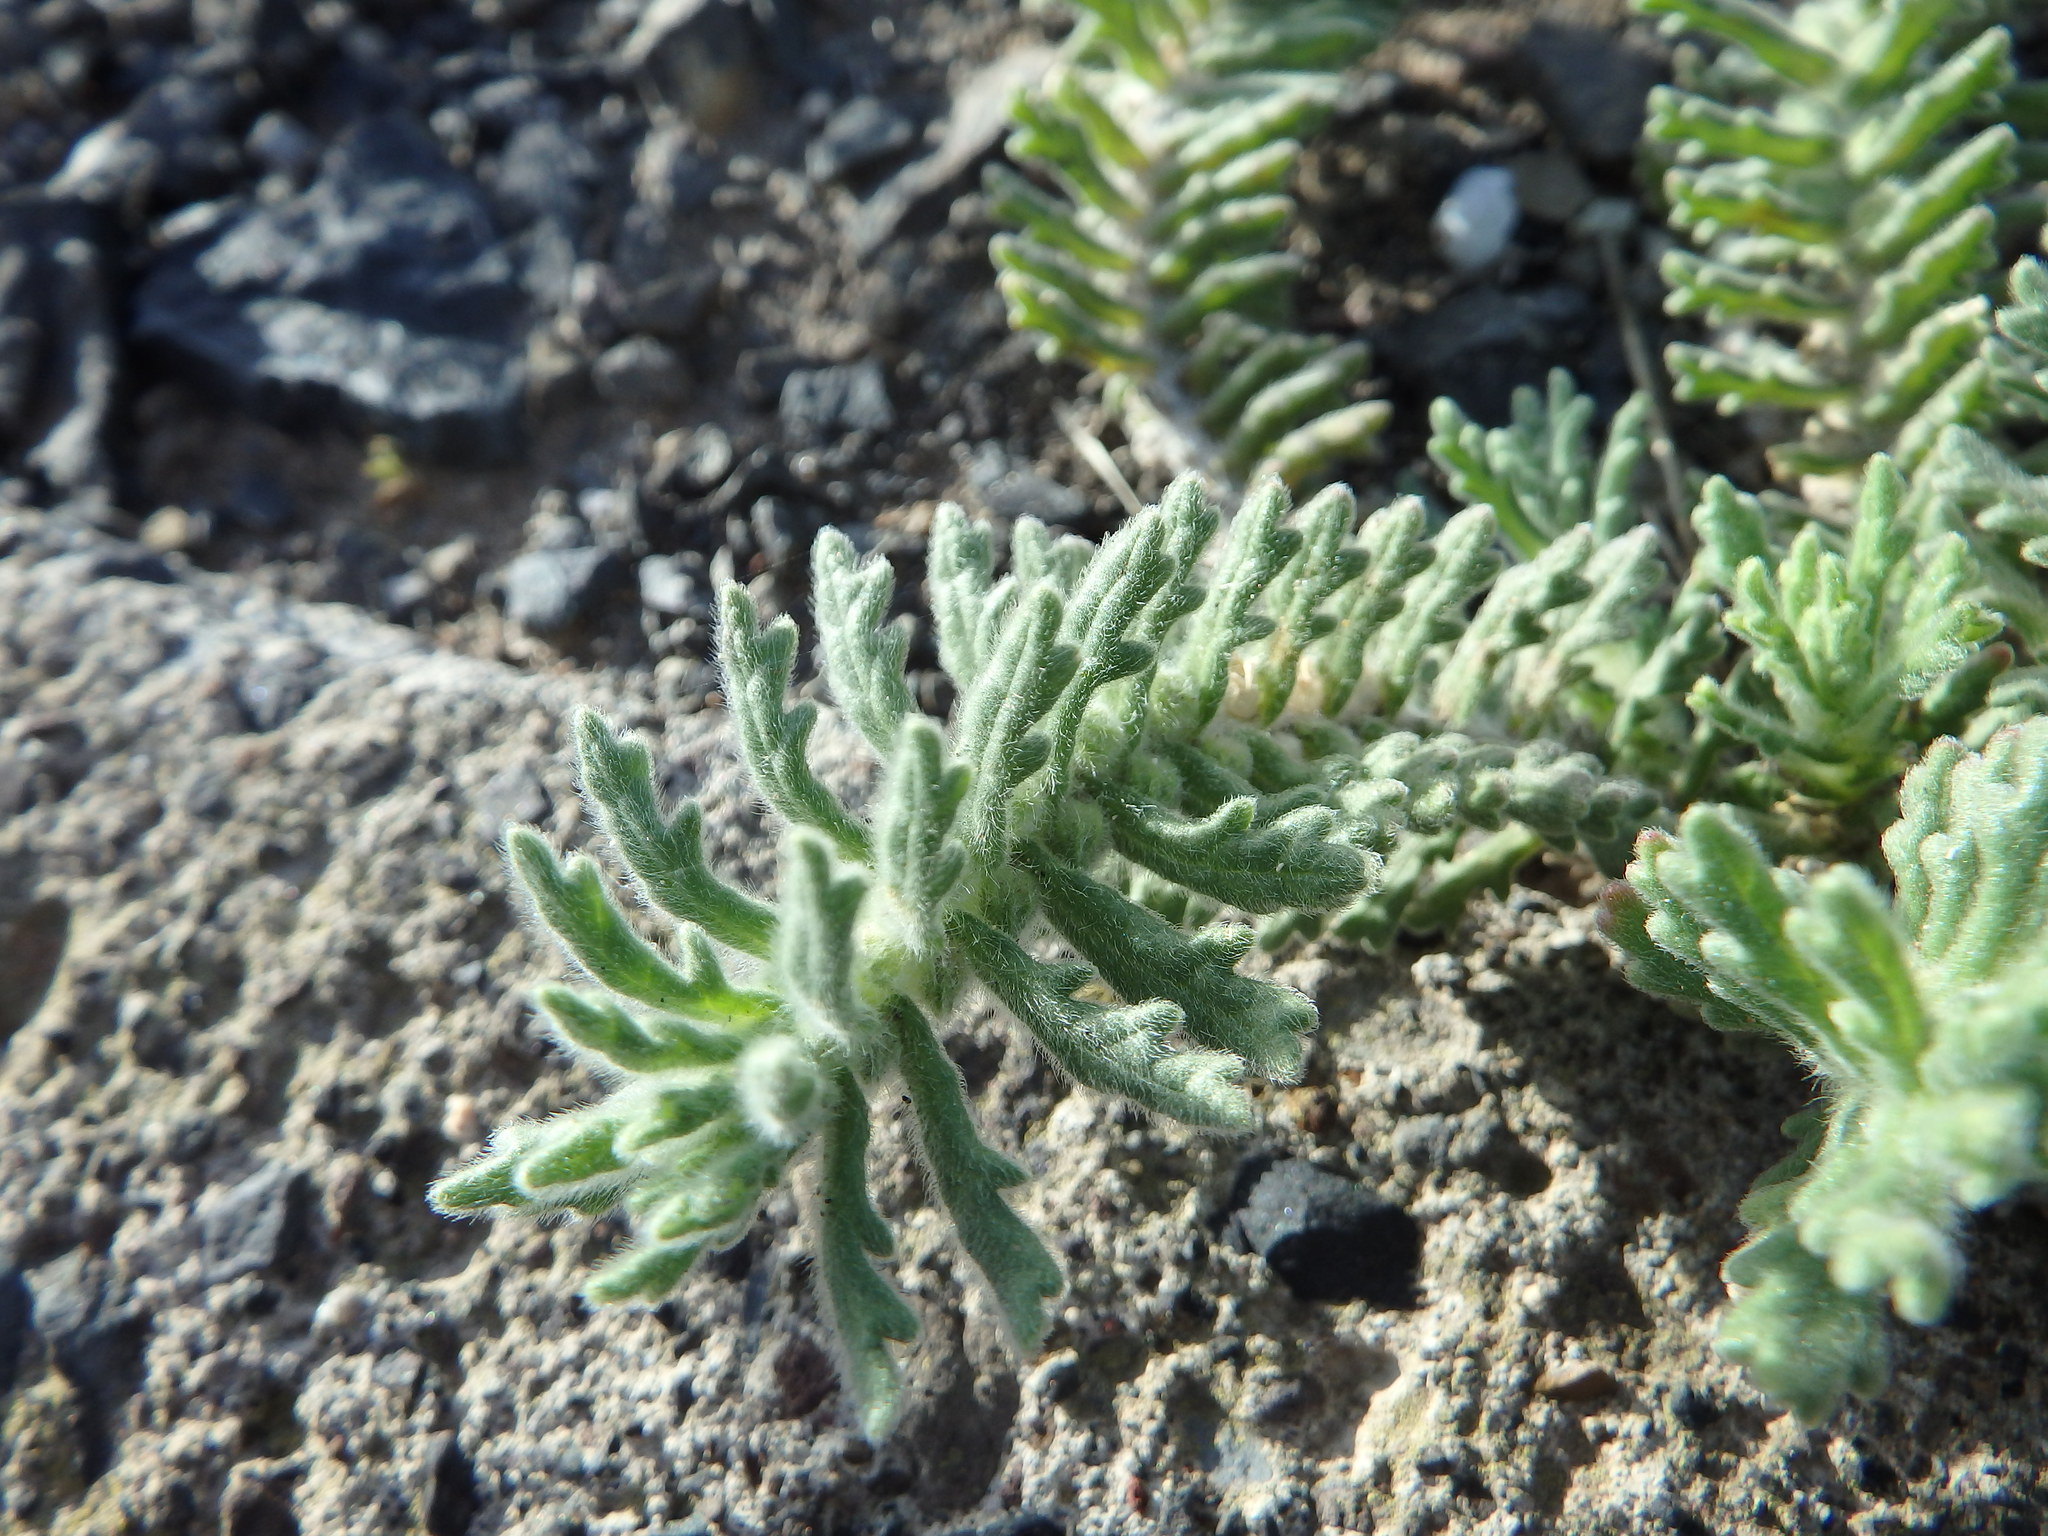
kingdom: Plantae
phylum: Tracheophyta
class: Magnoliopsida
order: Lamiales
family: Lamiaceae
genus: Ajuga
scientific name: Ajuga iva
